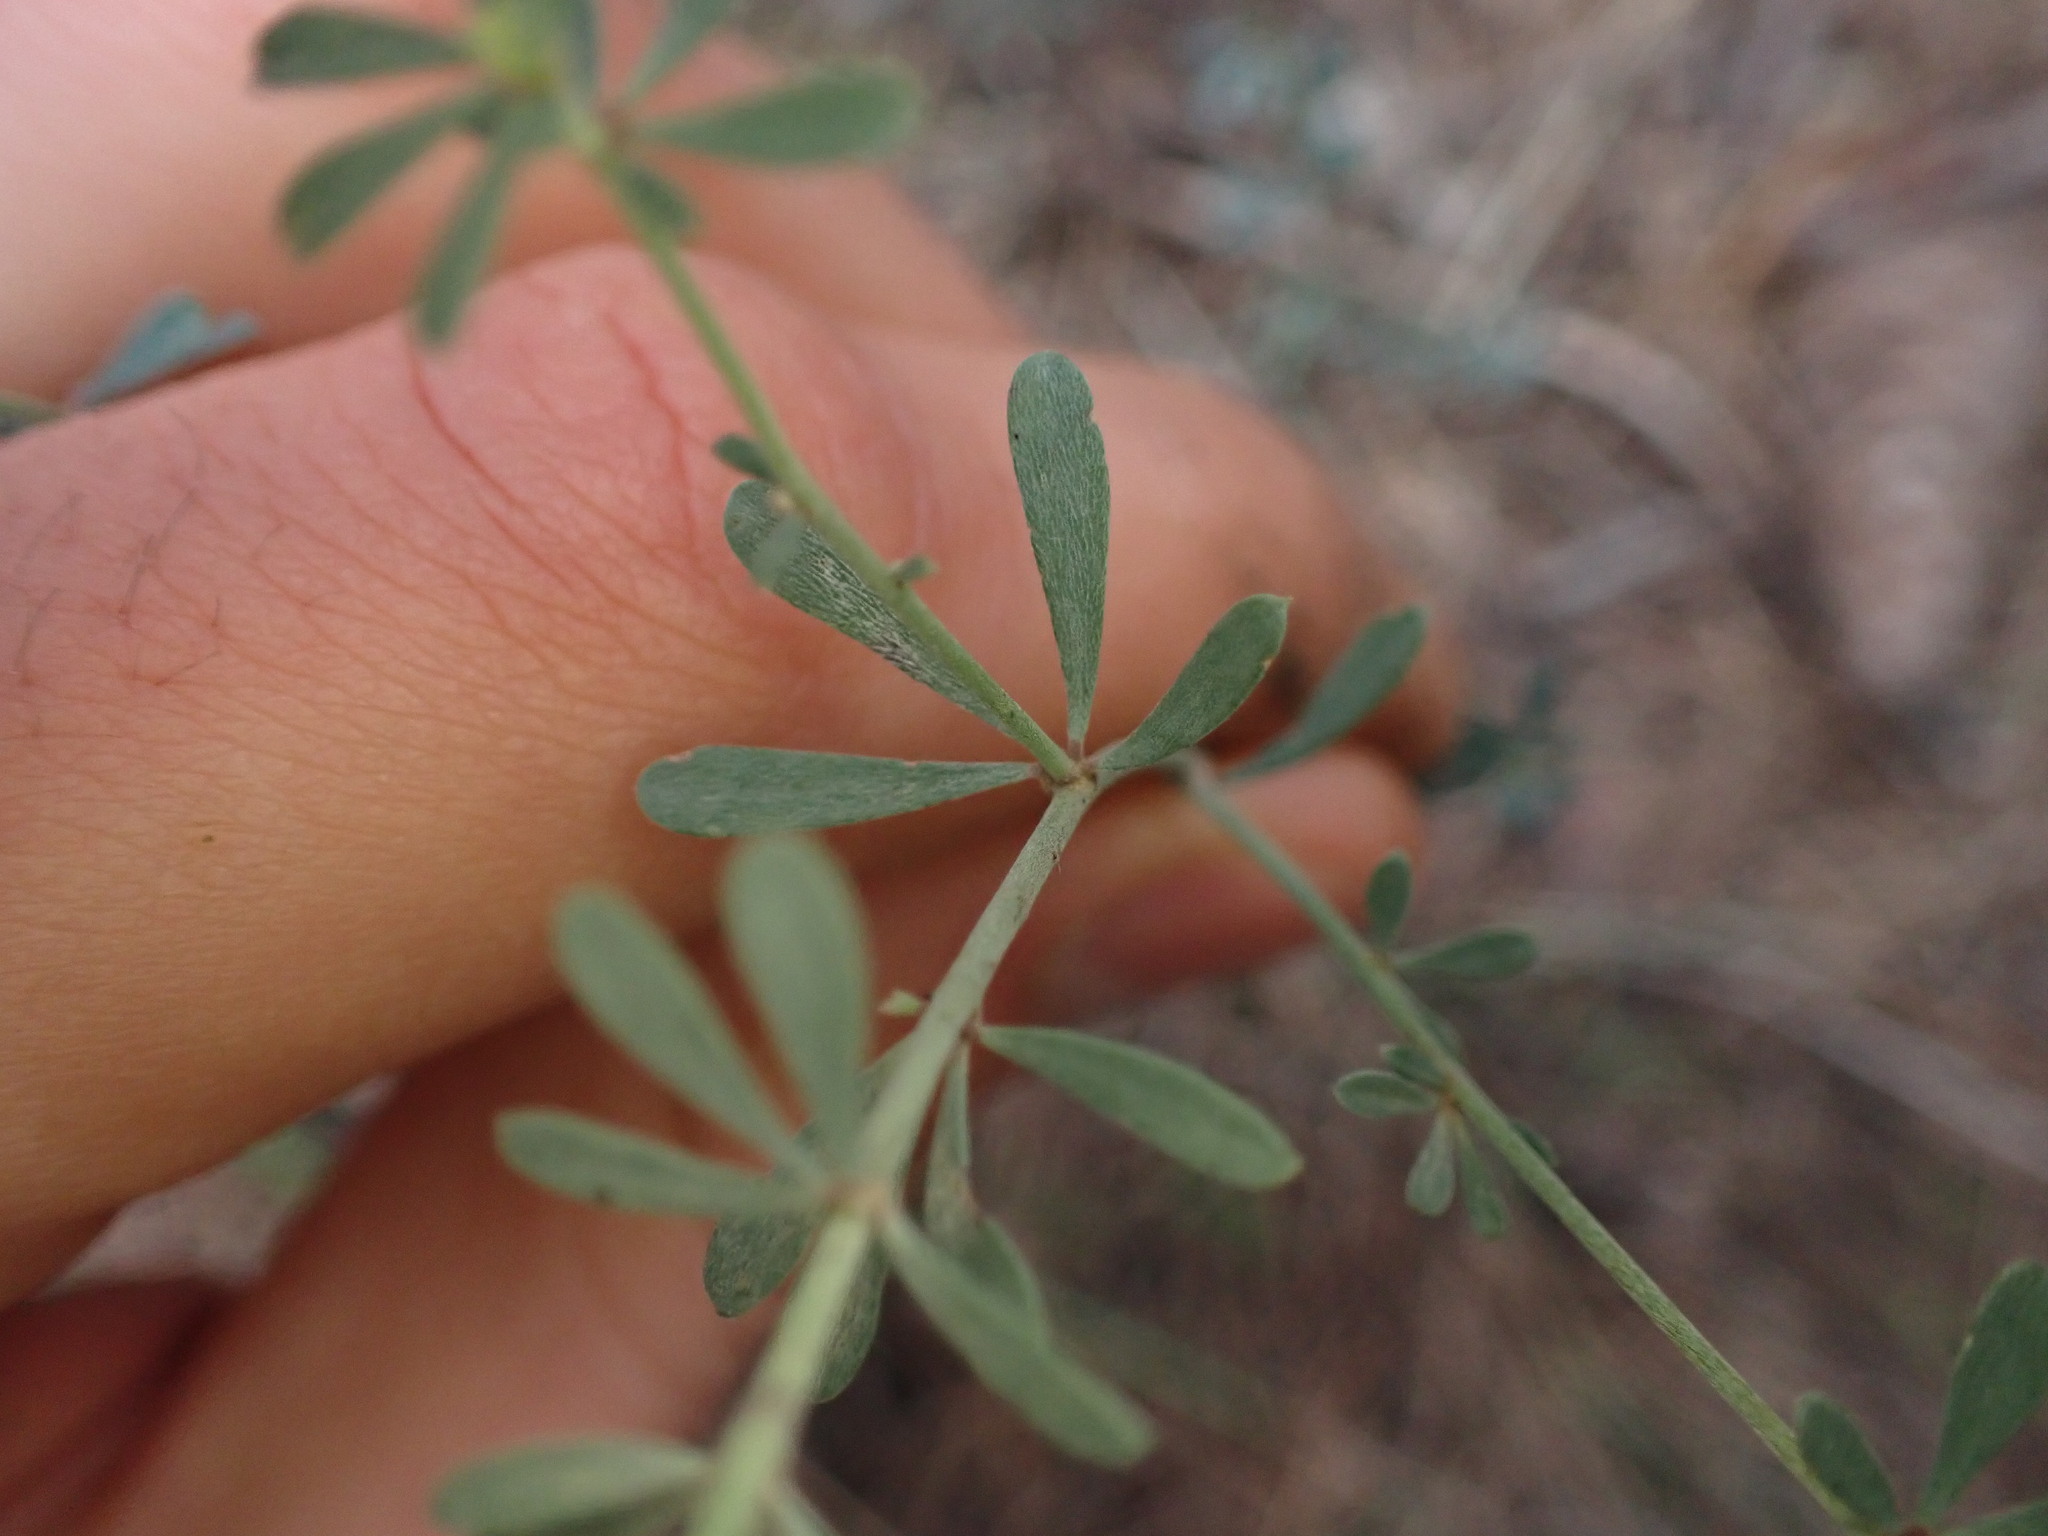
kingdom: Plantae
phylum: Tracheophyta
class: Magnoliopsida
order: Fabales
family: Fabaceae
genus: Lotus
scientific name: Lotus dorycnium
